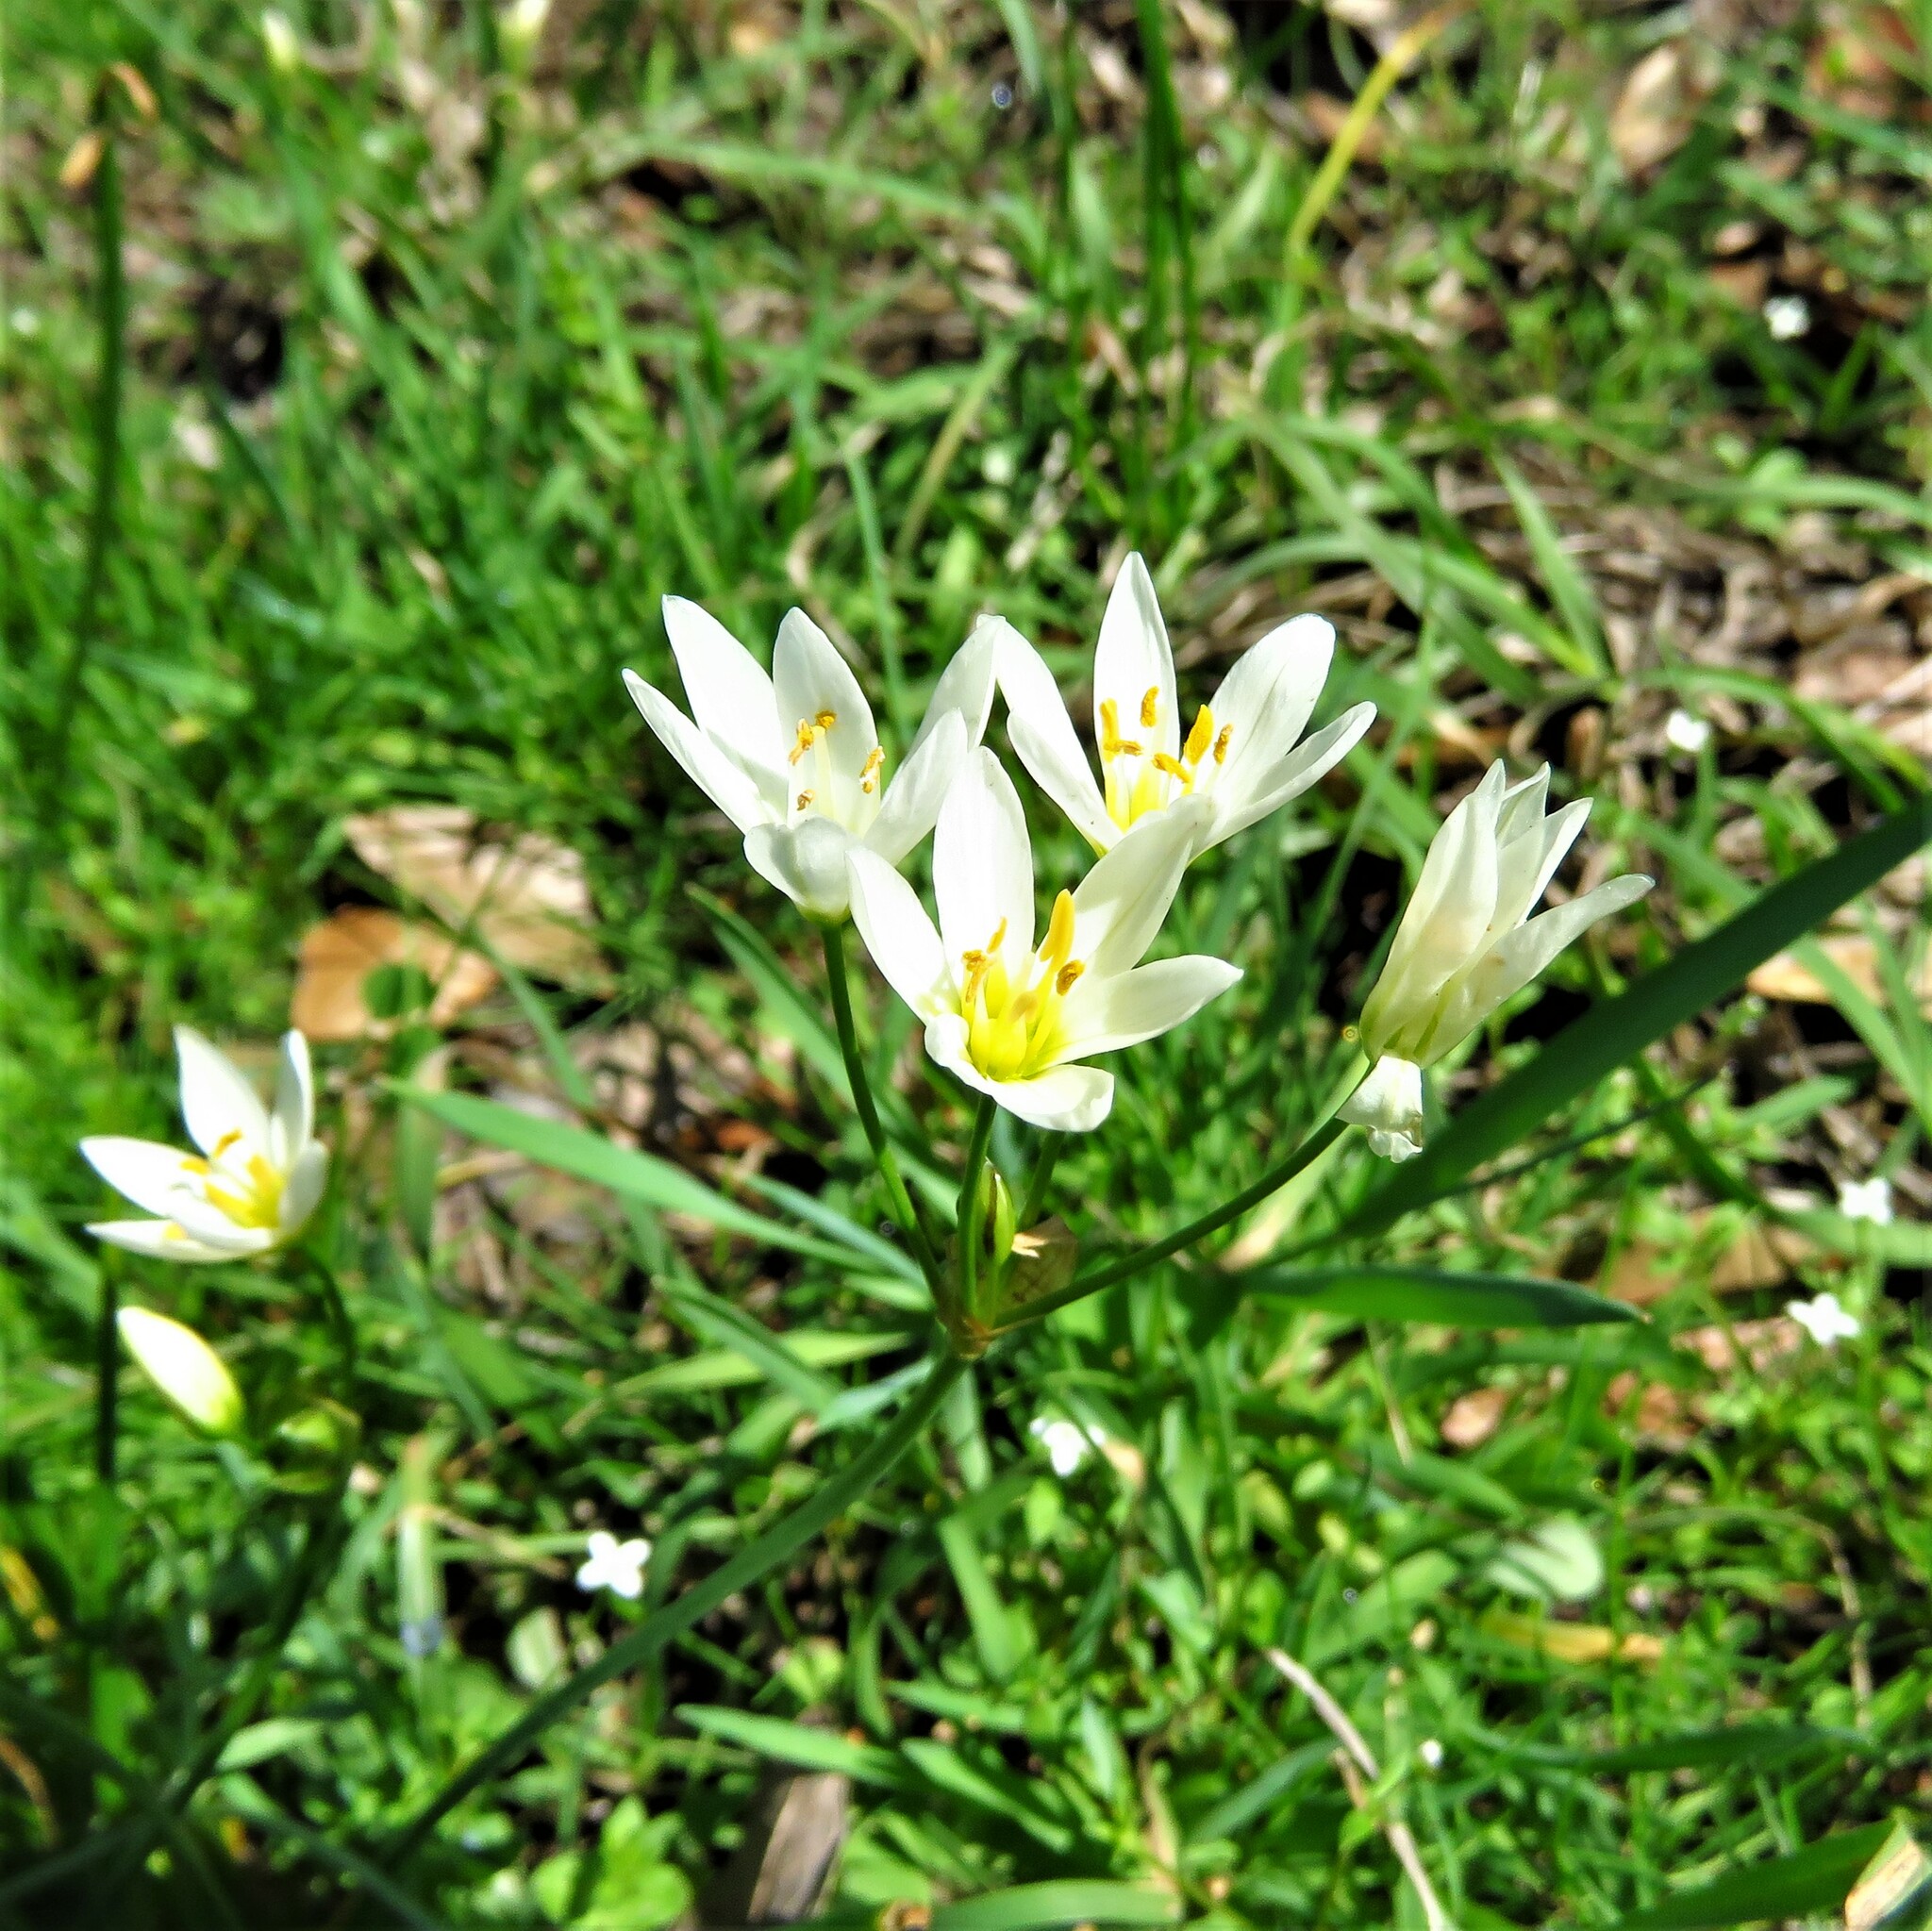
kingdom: Plantae
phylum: Tracheophyta
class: Liliopsida
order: Asparagales
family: Amaryllidaceae
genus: Nothoscordum
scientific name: Nothoscordum bivalve
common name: Crow-poison
